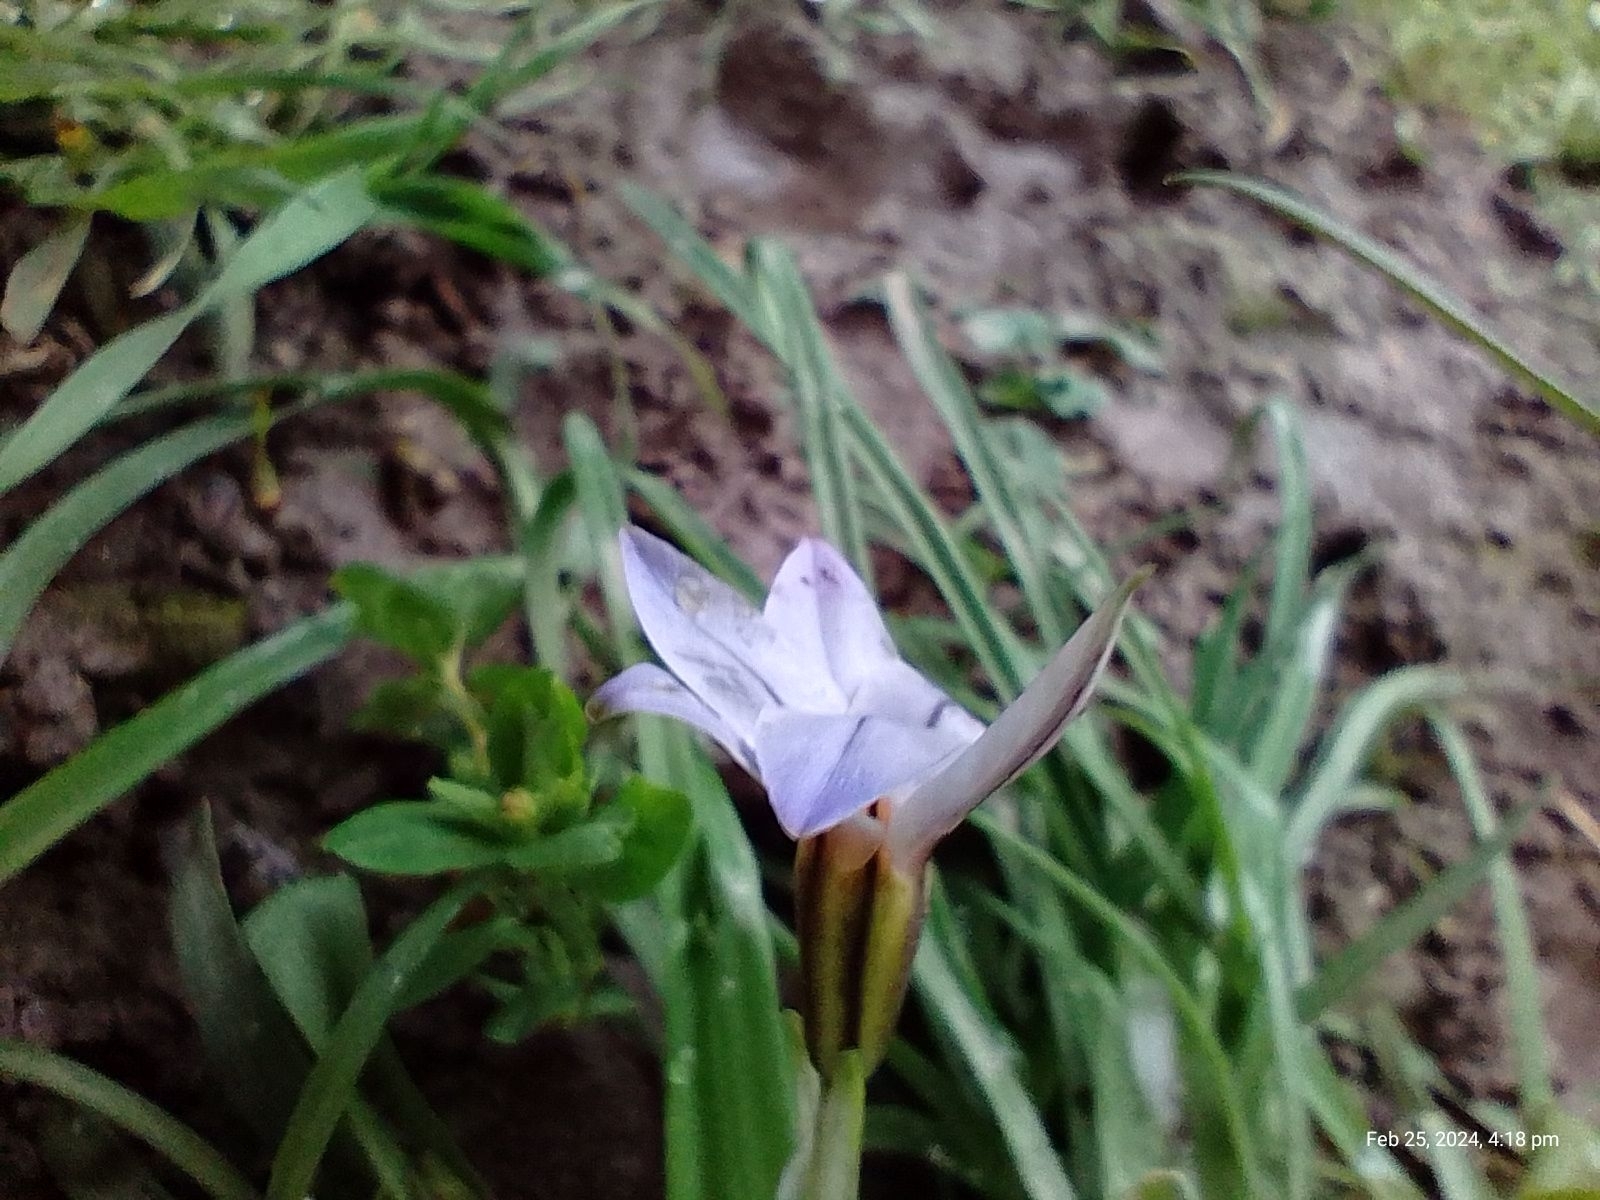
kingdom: Plantae
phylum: Tracheophyta
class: Liliopsida
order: Asparagales
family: Amaryllidaceae
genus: Ipheion
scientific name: Ipheion uniflorum
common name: Spring starflower
